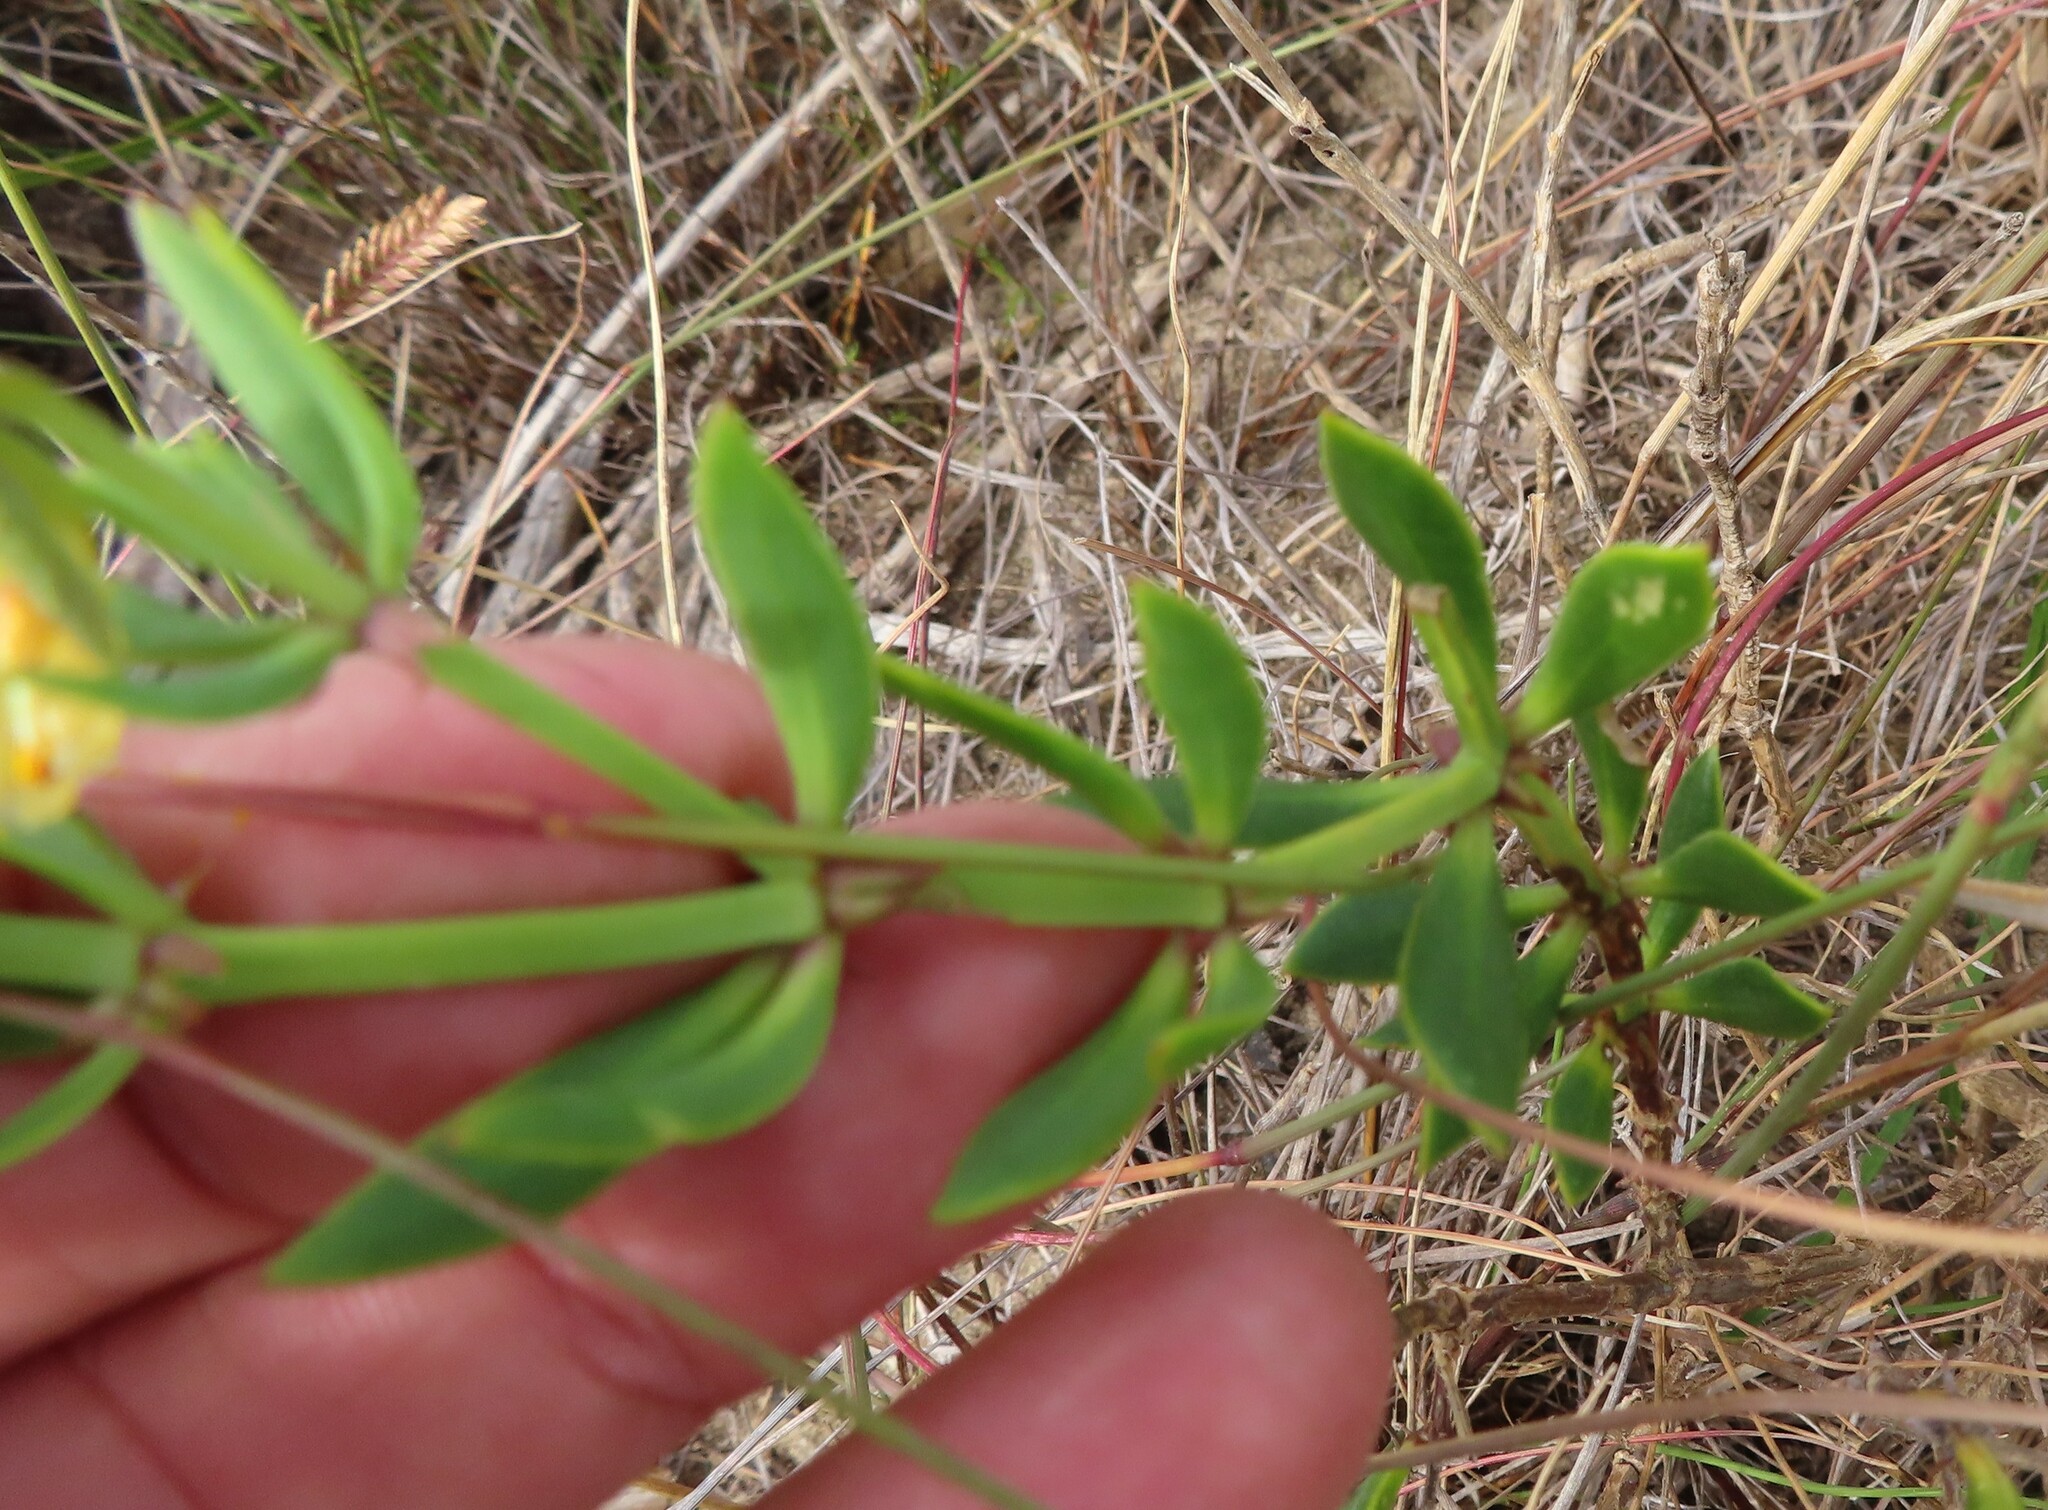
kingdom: Plantae
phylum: Tracheophyta
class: Magnoliopsida
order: Zygophyllales
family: Zygophyllaceae
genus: Roepera
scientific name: Roepera fulva
